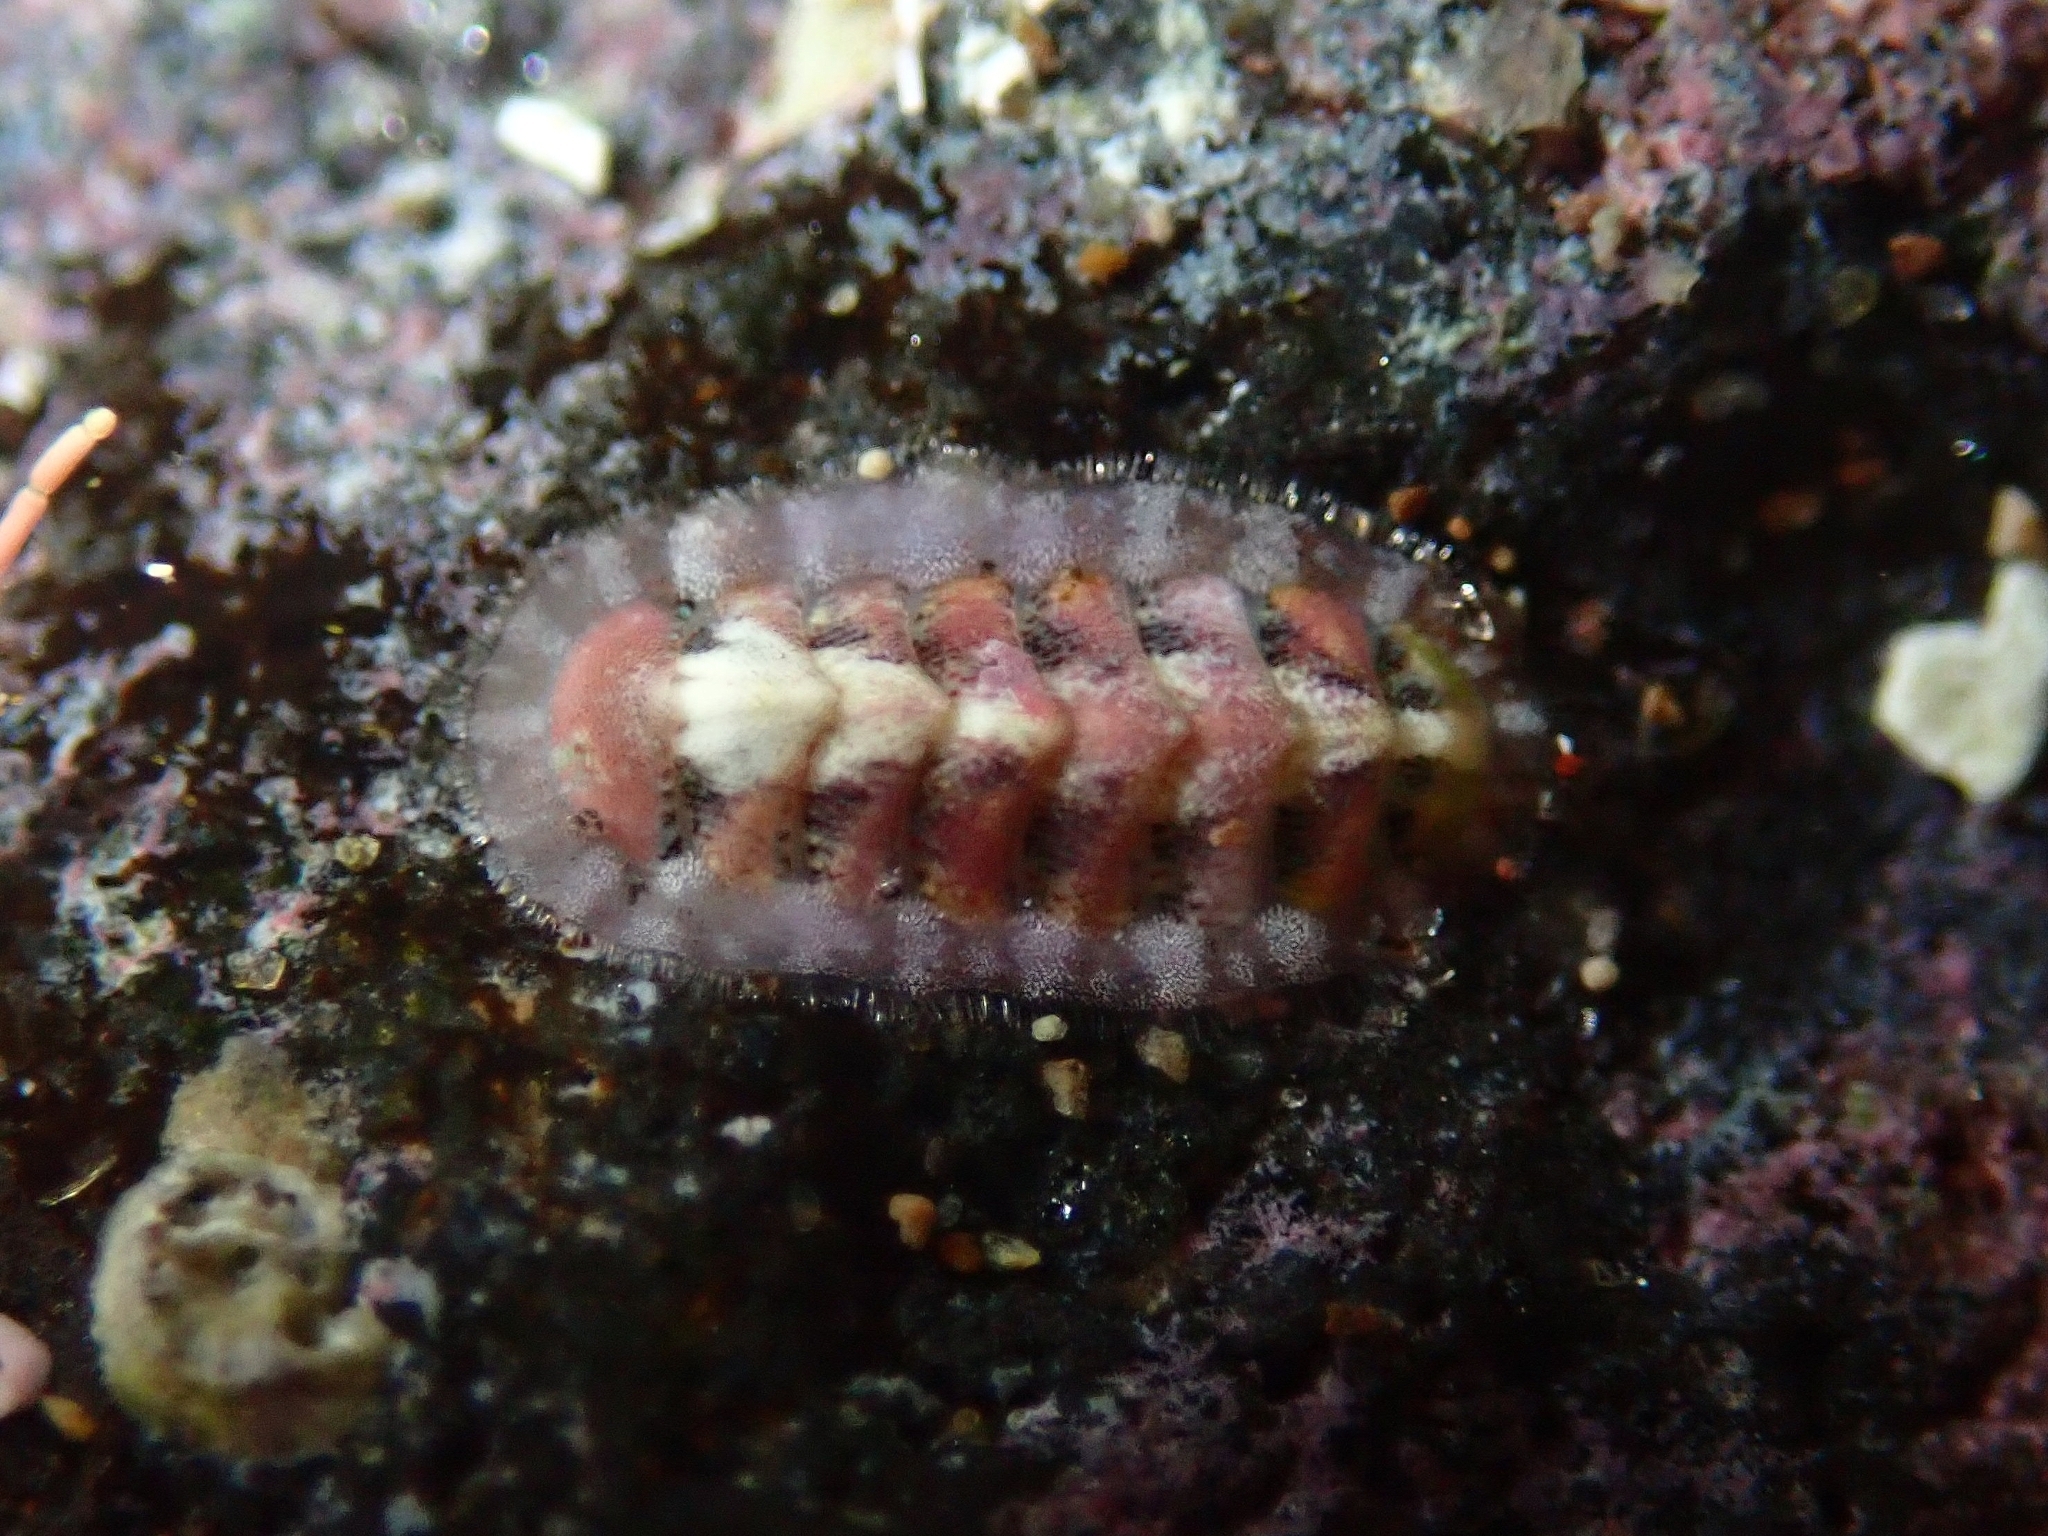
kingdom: Animalia
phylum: Mollusca
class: Polyplacophora
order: Chitonida
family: Tonicellidae
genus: Lepidochitona
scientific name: Lepidochitona piceola
